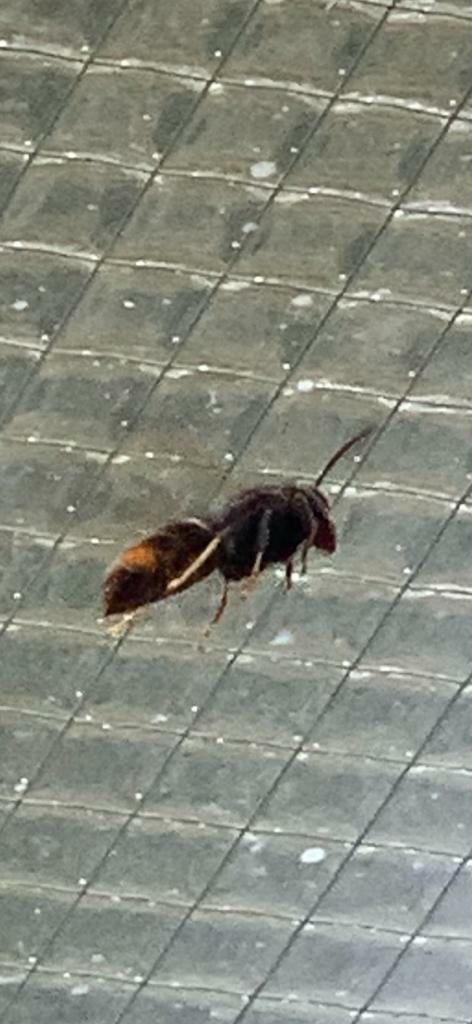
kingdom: Animalia
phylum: Arthropoda
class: Insecta
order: Hymenoptera
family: Vespidae
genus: Vespa
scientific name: Vespa velutina
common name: Asian hornet
